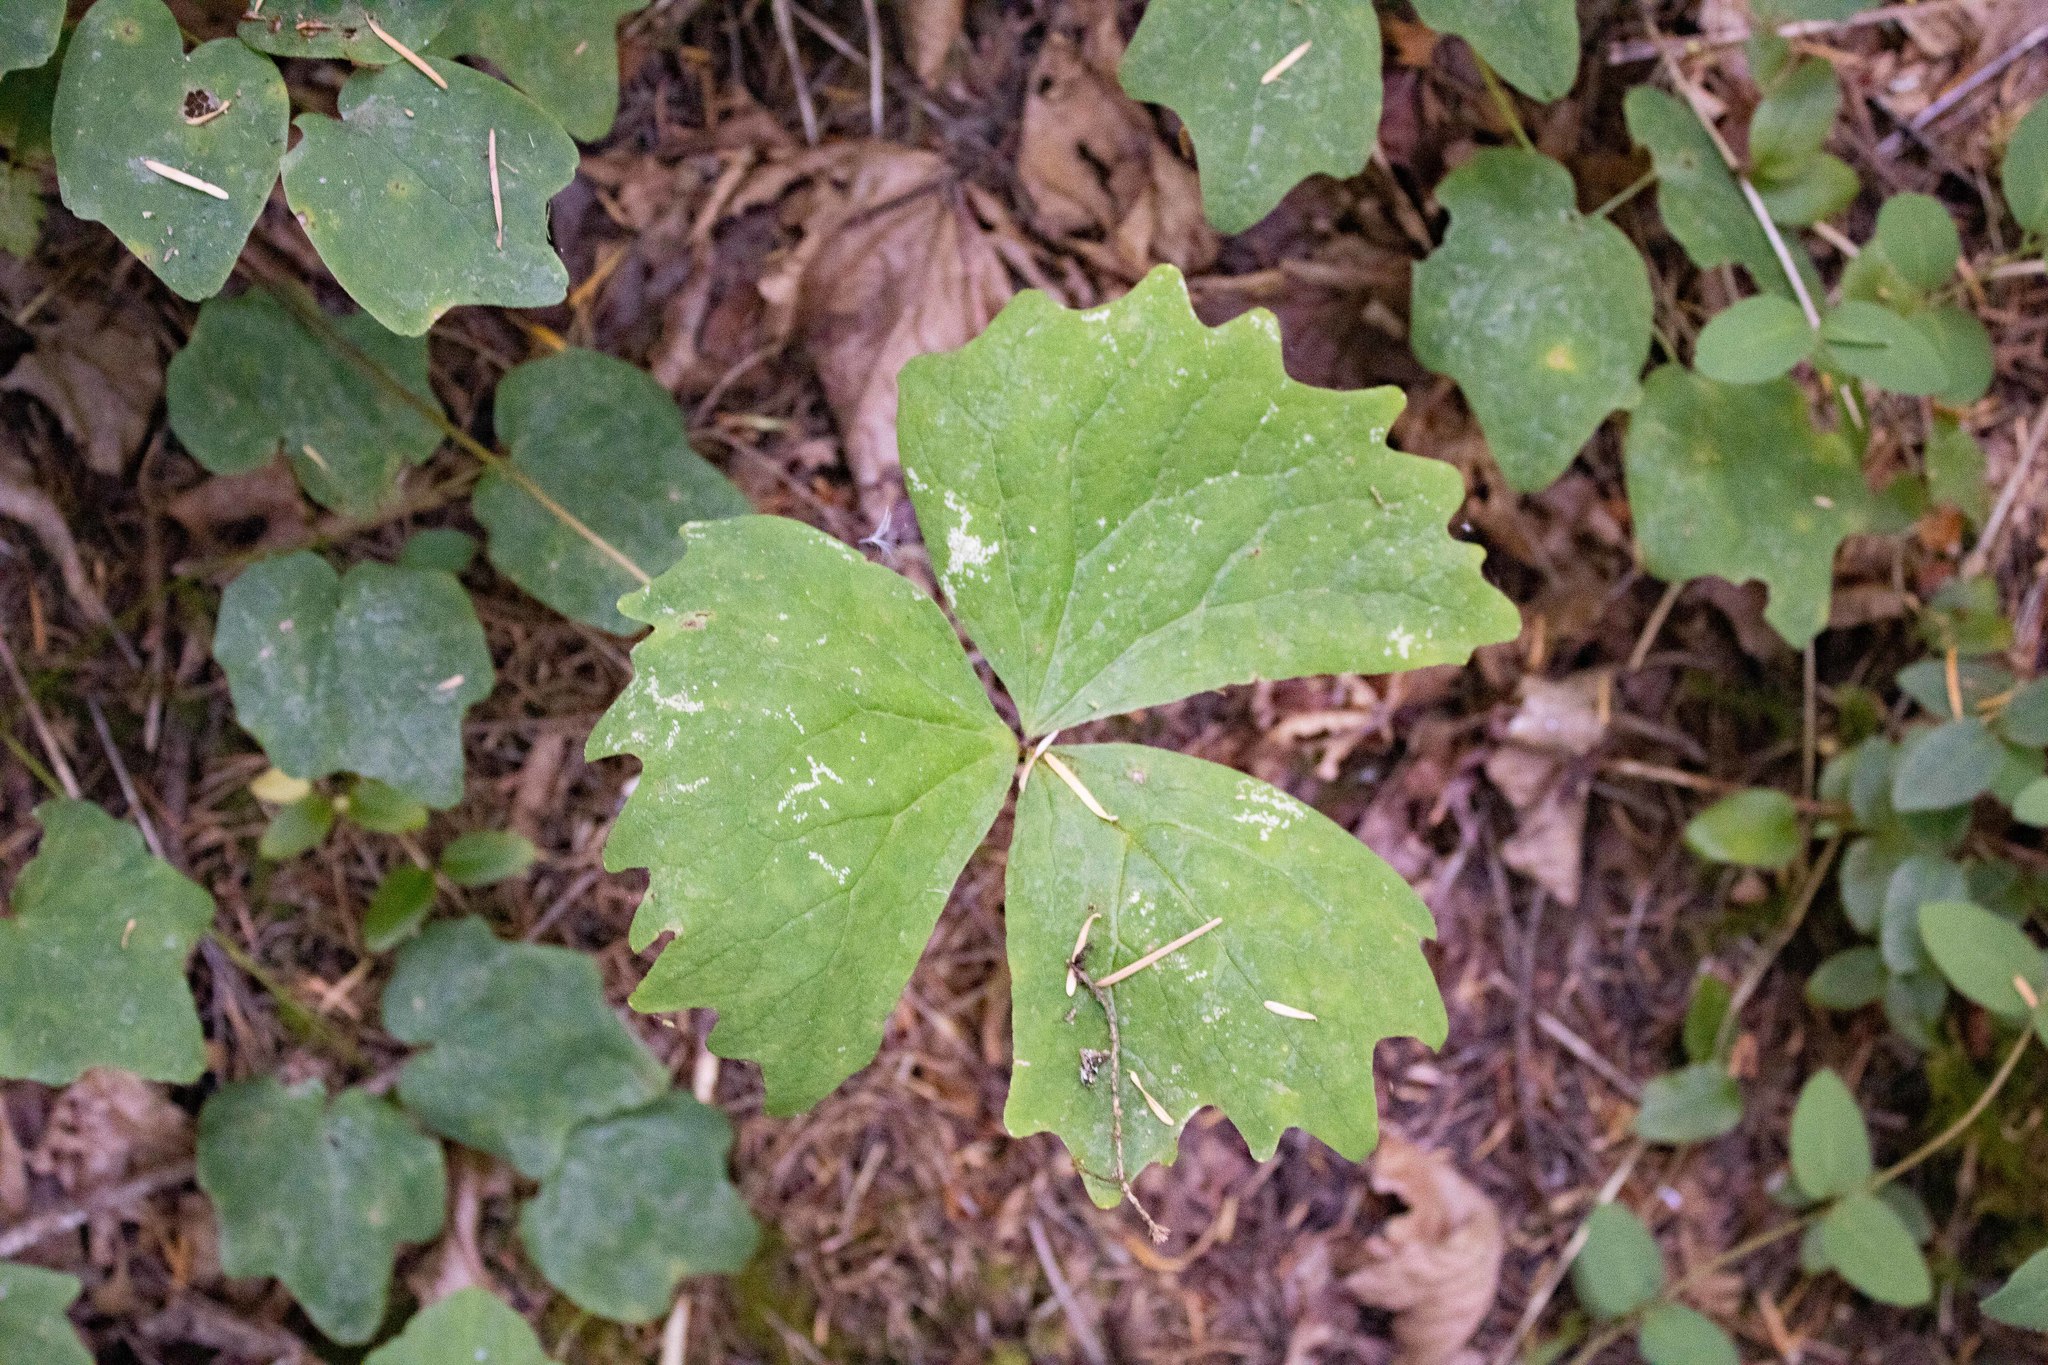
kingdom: Plantae
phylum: Tracheophyta
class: Magnoliopsida
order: Ranunculales
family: Berberidaceae
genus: Achlys
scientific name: Achlys triphylla
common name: Vanilla-leaf
